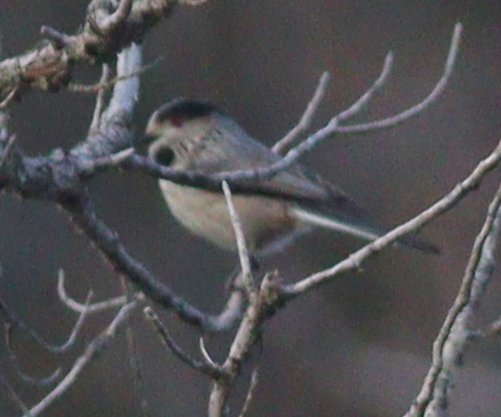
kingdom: Animalia
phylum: Chordata
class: Aves
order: Passeriformes
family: Aegithalidae
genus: Aegithalos
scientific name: Aegithalos caudatus
